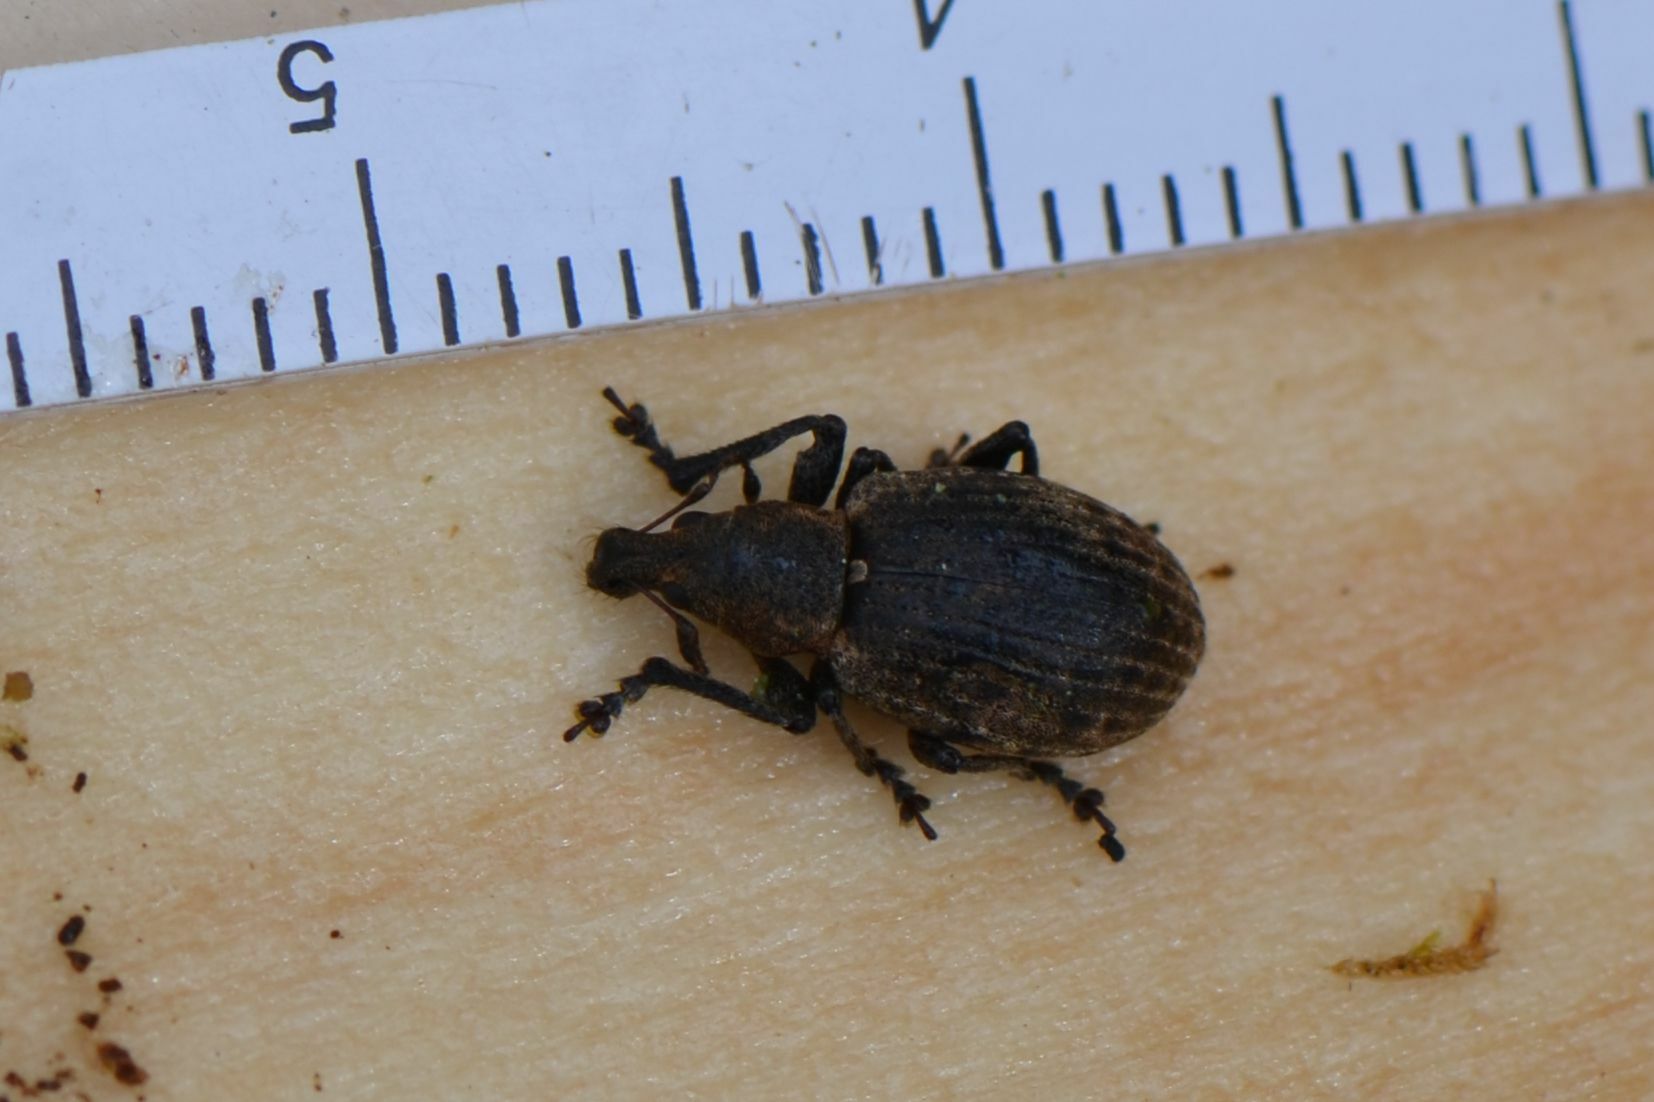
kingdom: Animalia
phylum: Arthropoda
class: Insecta
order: Coleoptera
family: Curculionidae
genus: Liophloeus
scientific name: Liophloeus tessulatus
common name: Weevil
